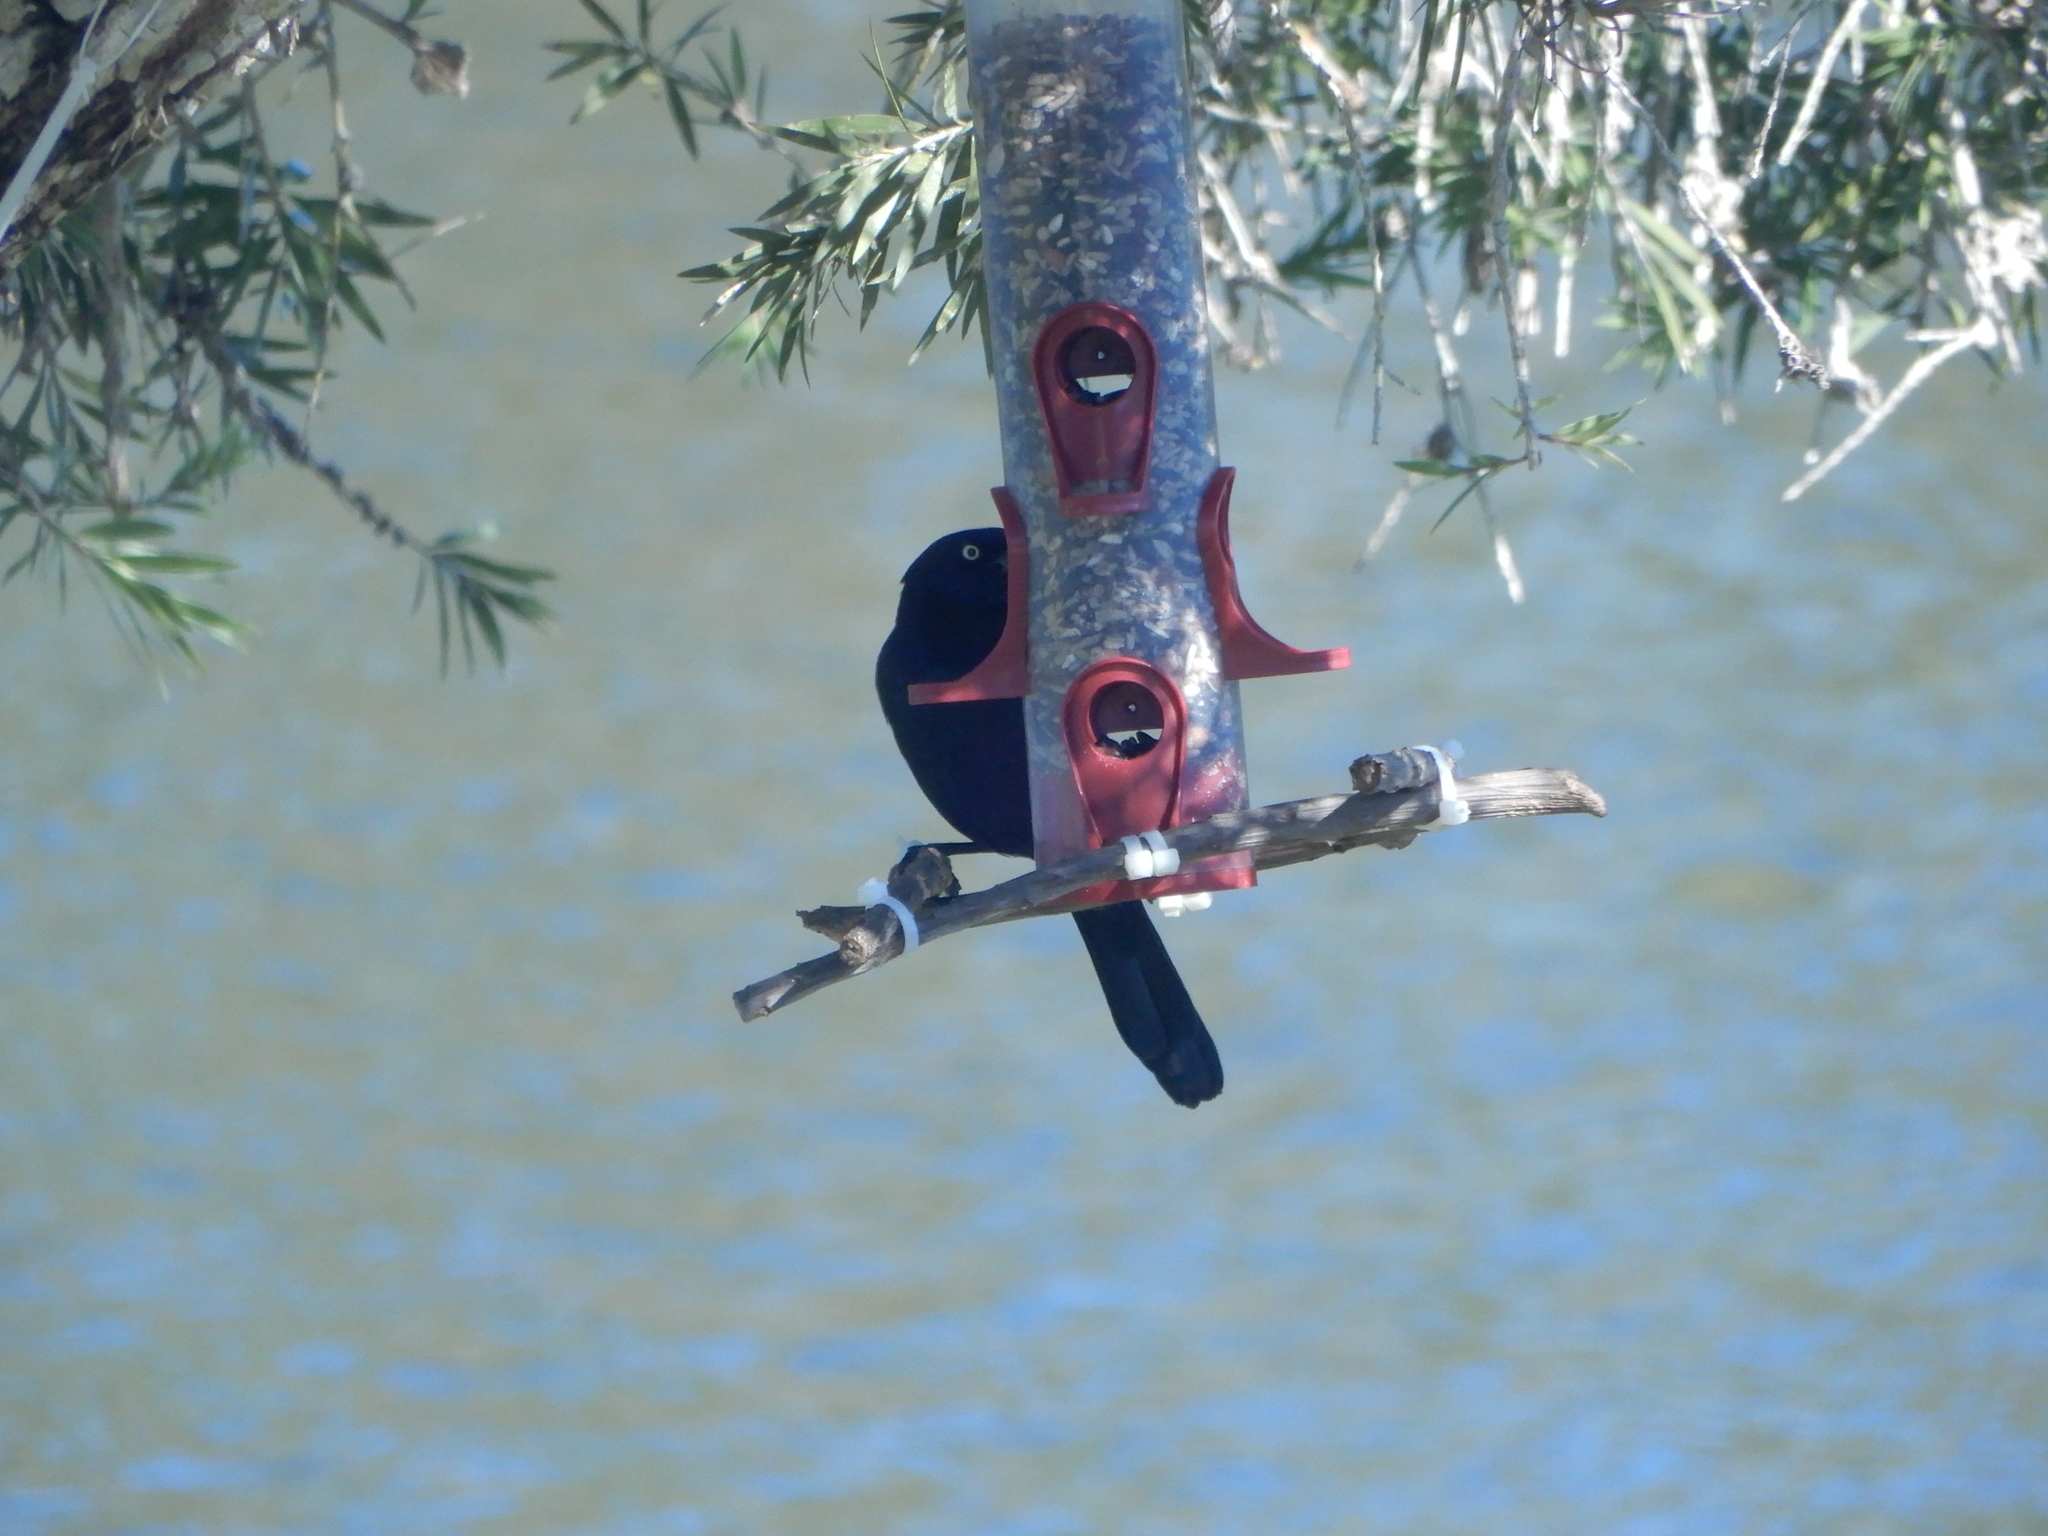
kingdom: Animalia
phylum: Chordata
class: Aves
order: Passeriformes
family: Icteridae
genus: Quiscalus
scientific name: Quiscalus quiscula
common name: Common grackle
